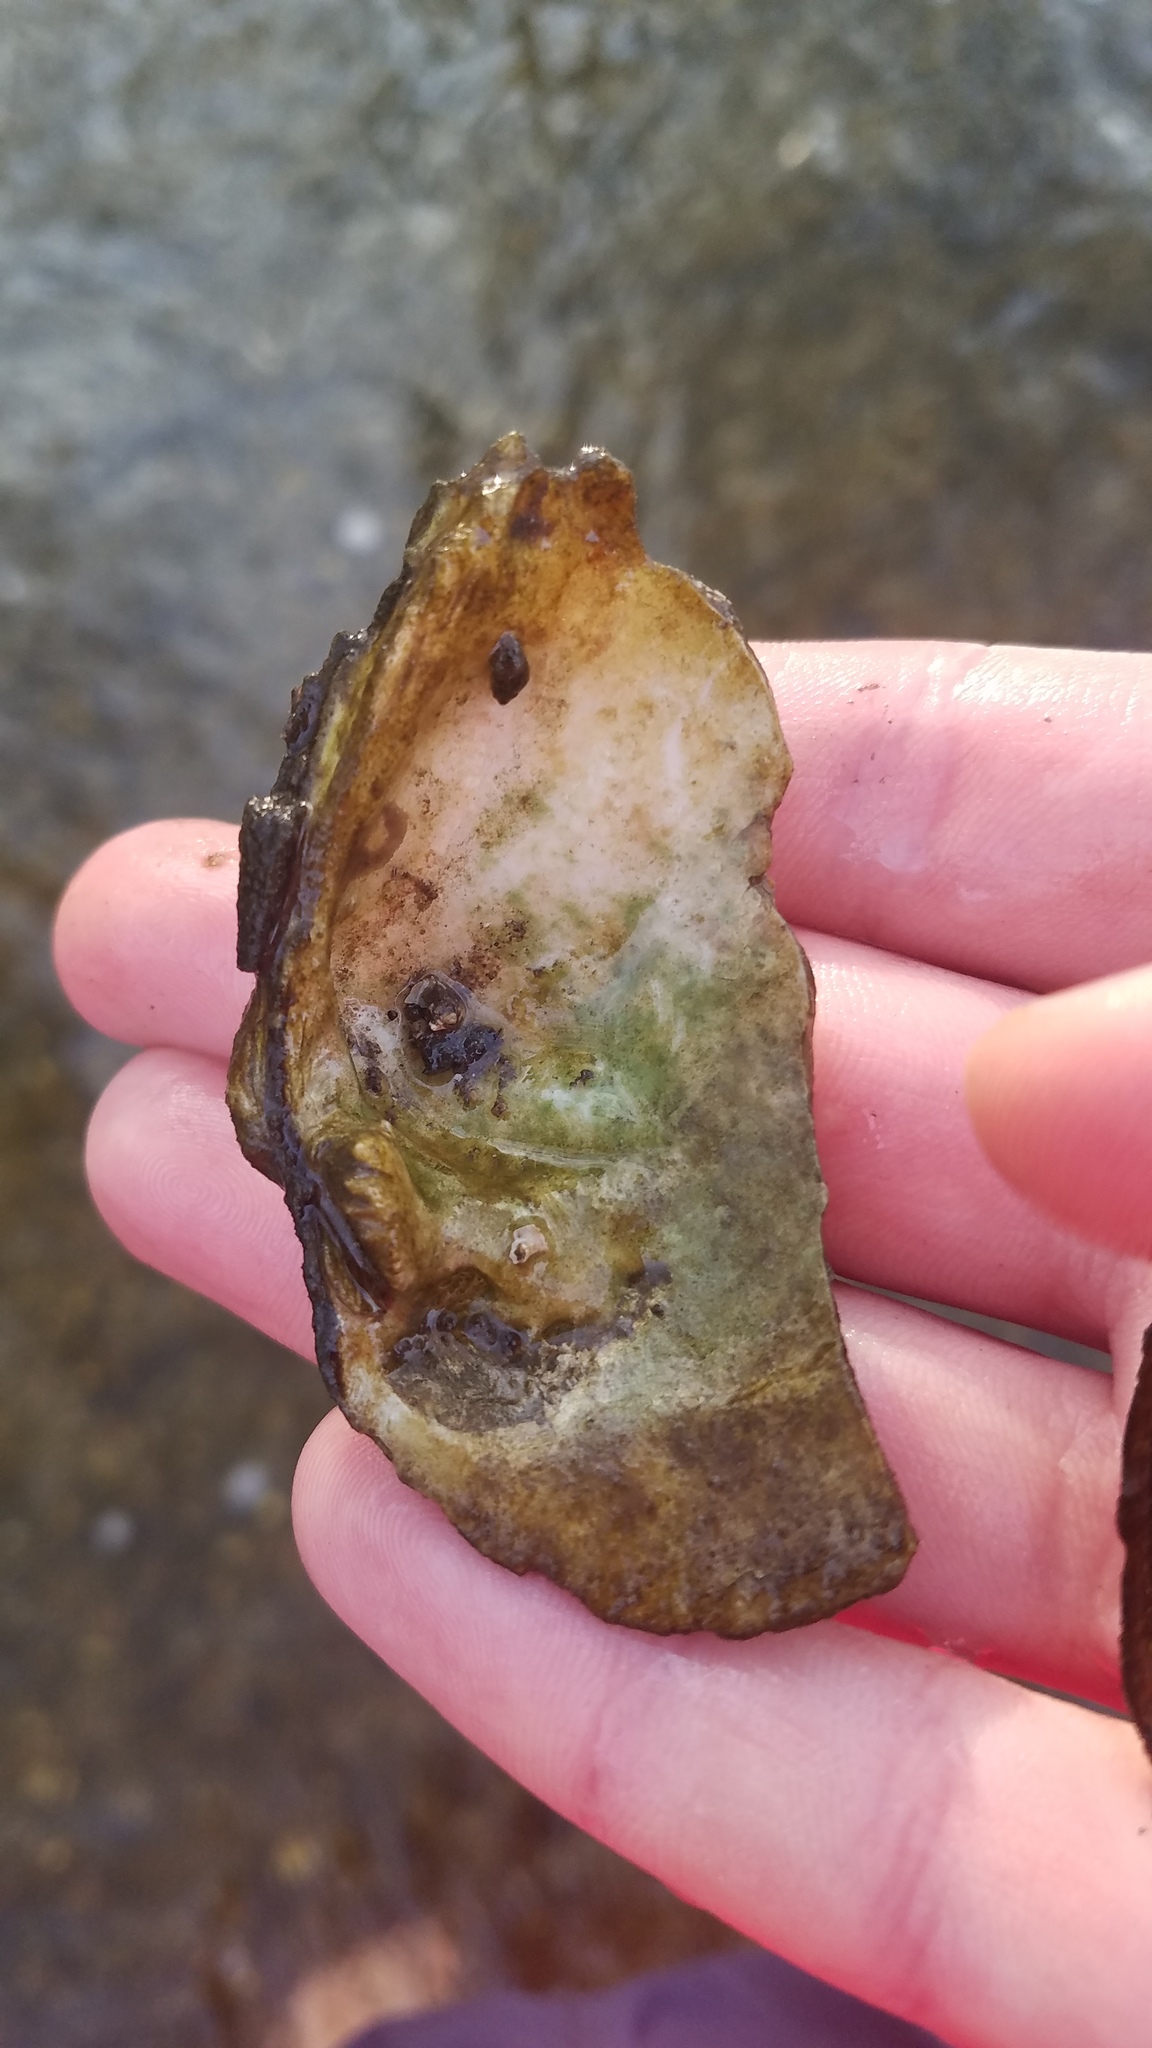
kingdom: Animalia
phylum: Mollusca
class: Bivalvia
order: Unionida
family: Unionidae
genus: Fusconaia
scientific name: Fusconaia flava
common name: Wabash pigtoe
